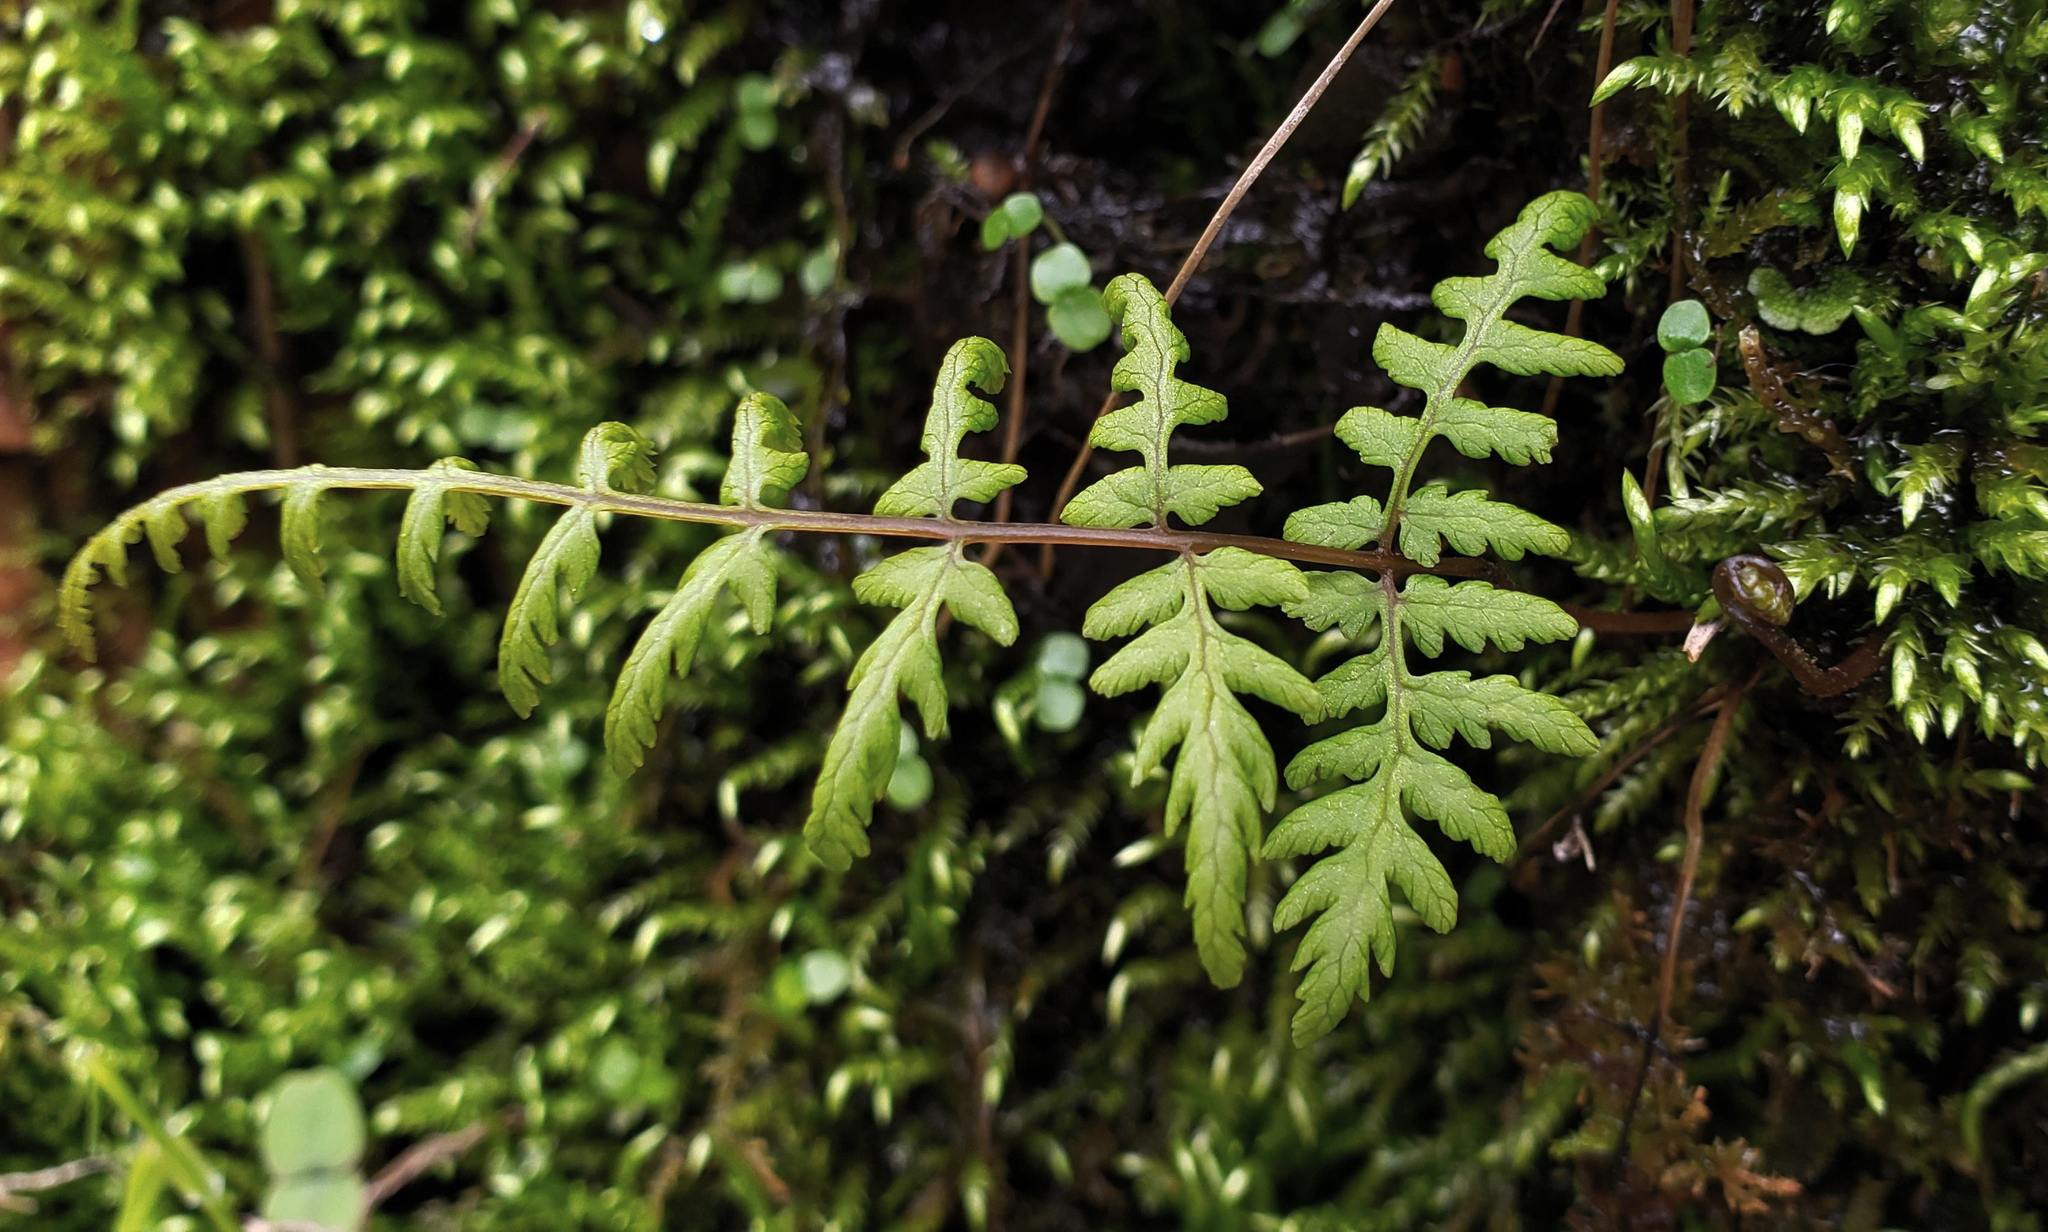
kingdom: Plantae
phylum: Tracheophyta
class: Polypodiopsida
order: Polypodiales
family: Cystopteridaceae
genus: Cystopteris
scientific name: Cystopteris bulbifera
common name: Bulblet bladder fern
